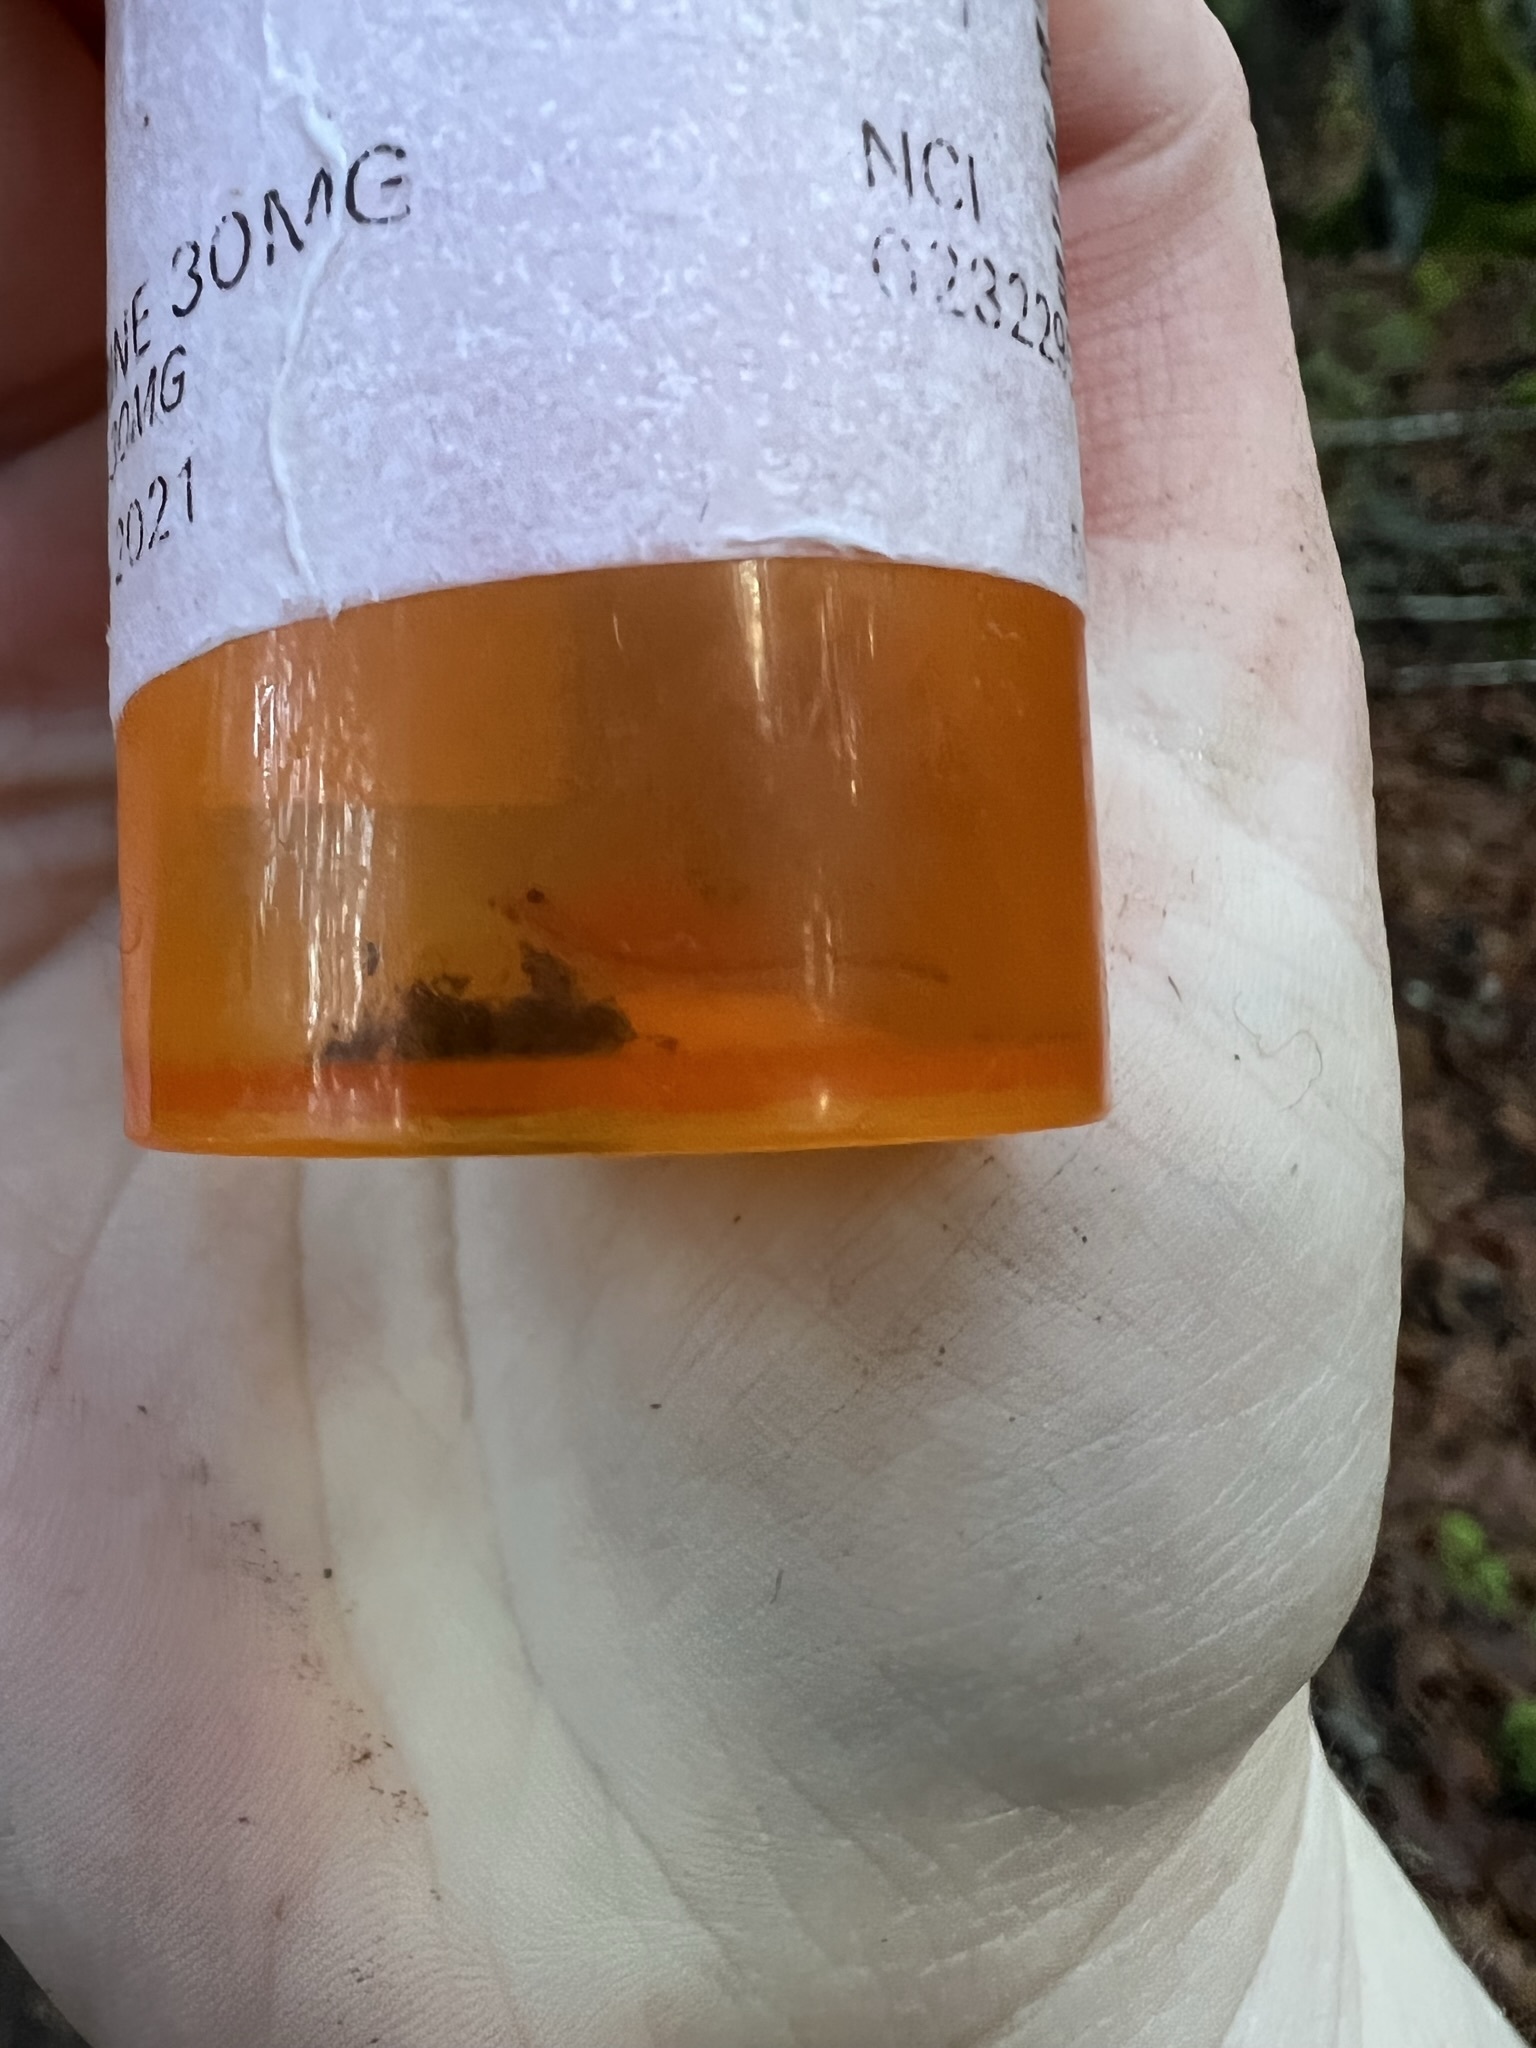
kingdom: Animalia
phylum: Arthropoda
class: Branchiopoda
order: Anostraca
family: Chirocephalidae
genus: Eubranchipus
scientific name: Eubranchipus oregonus
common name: Oregon fairy shrimp
